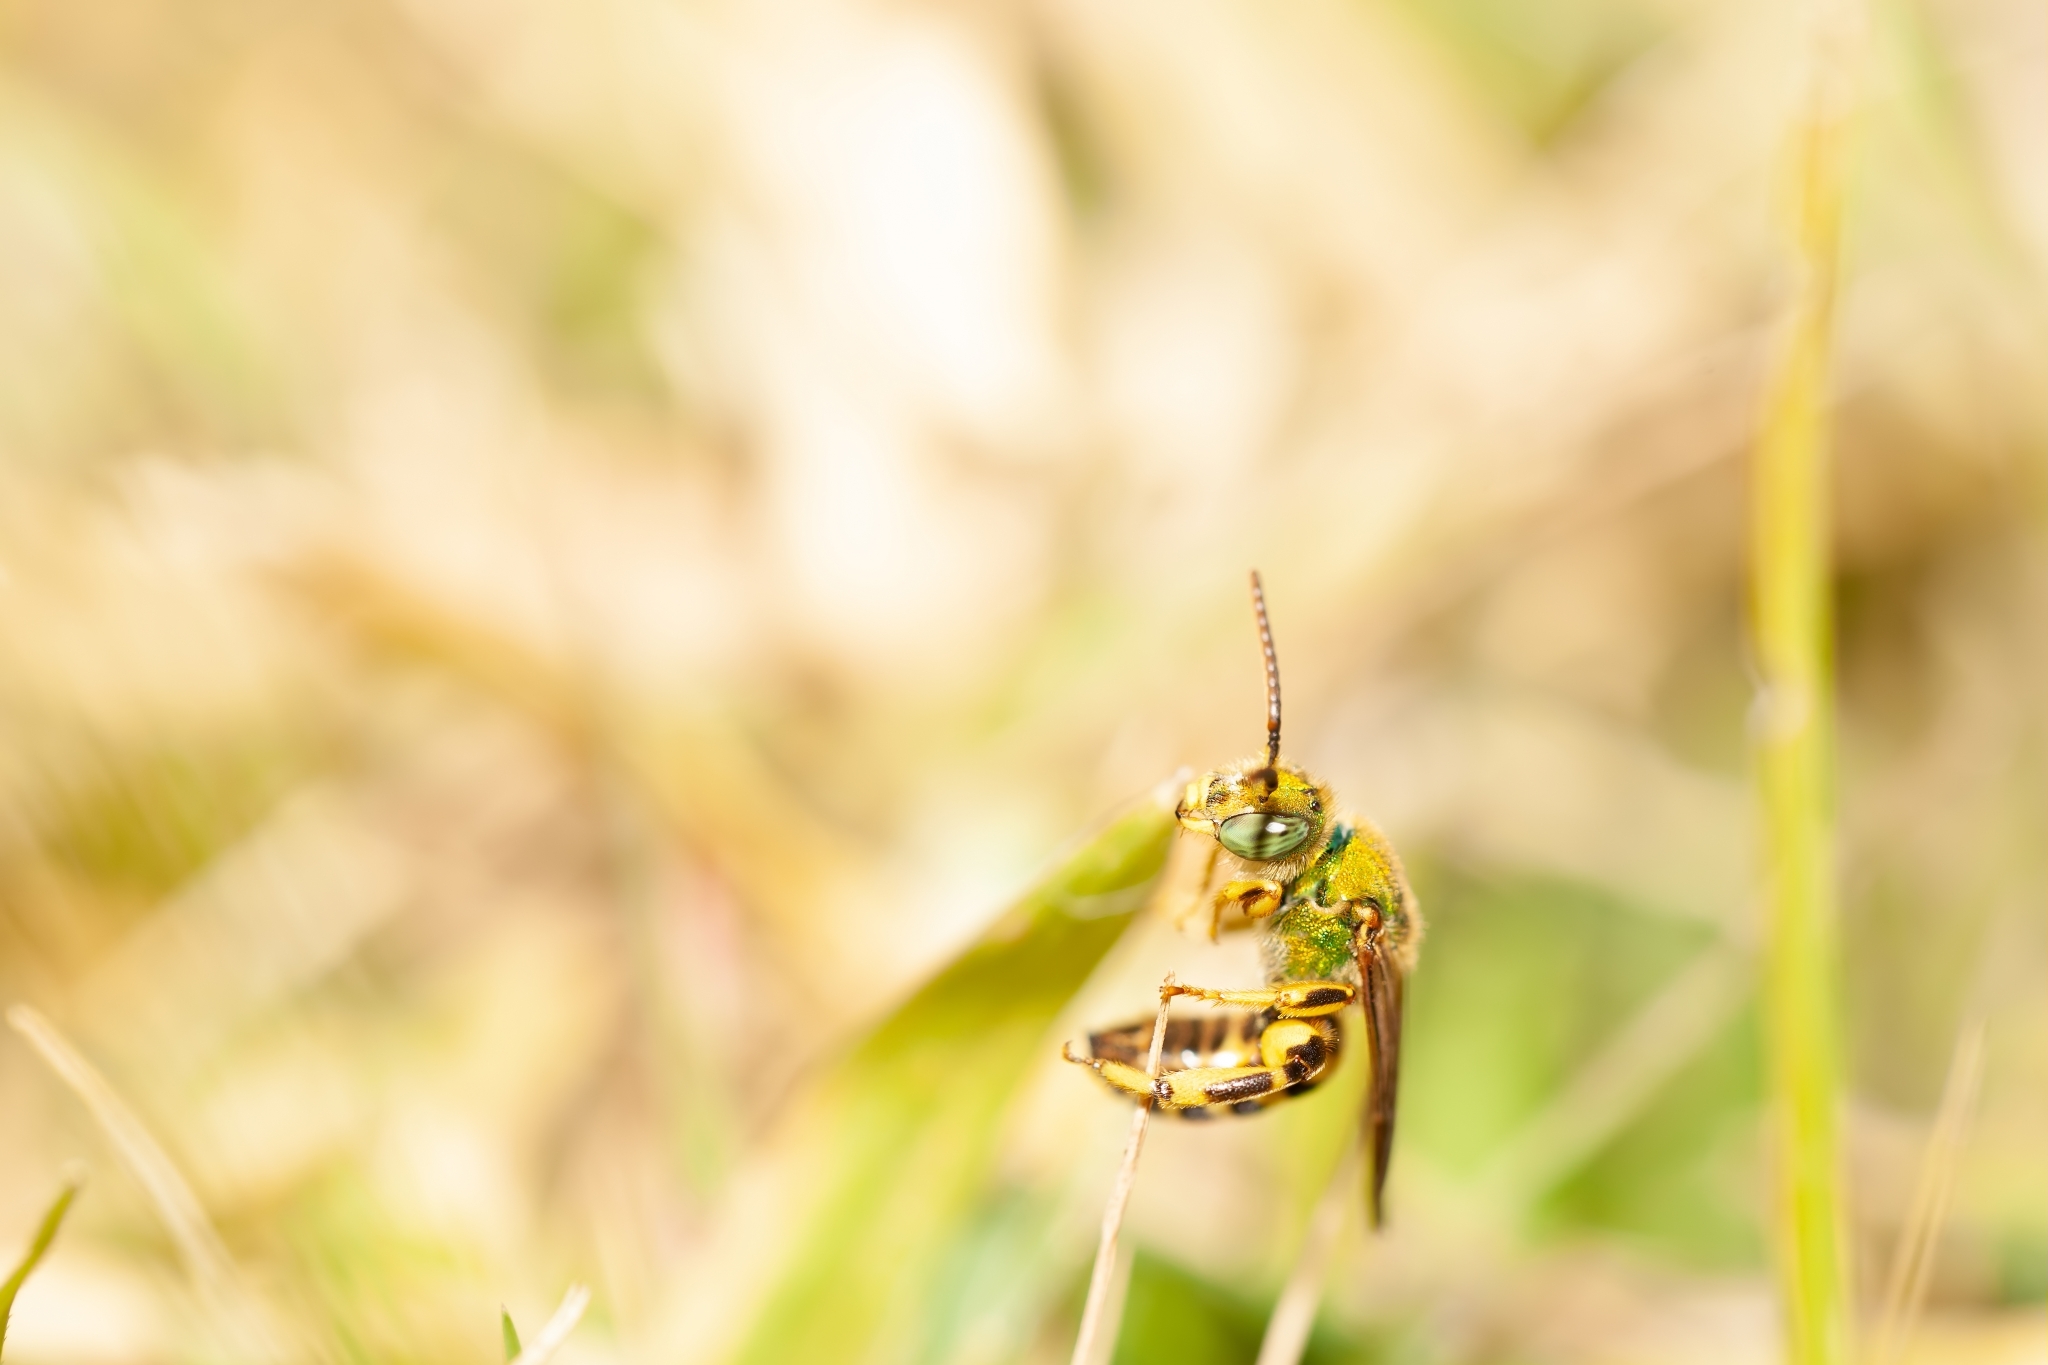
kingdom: Animalia
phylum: Arthropoda
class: Insecta
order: Hymenoptera
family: Halictidae
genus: Agapostemon
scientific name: Agapostemon splendens
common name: Brown-winged striped sweat bee
